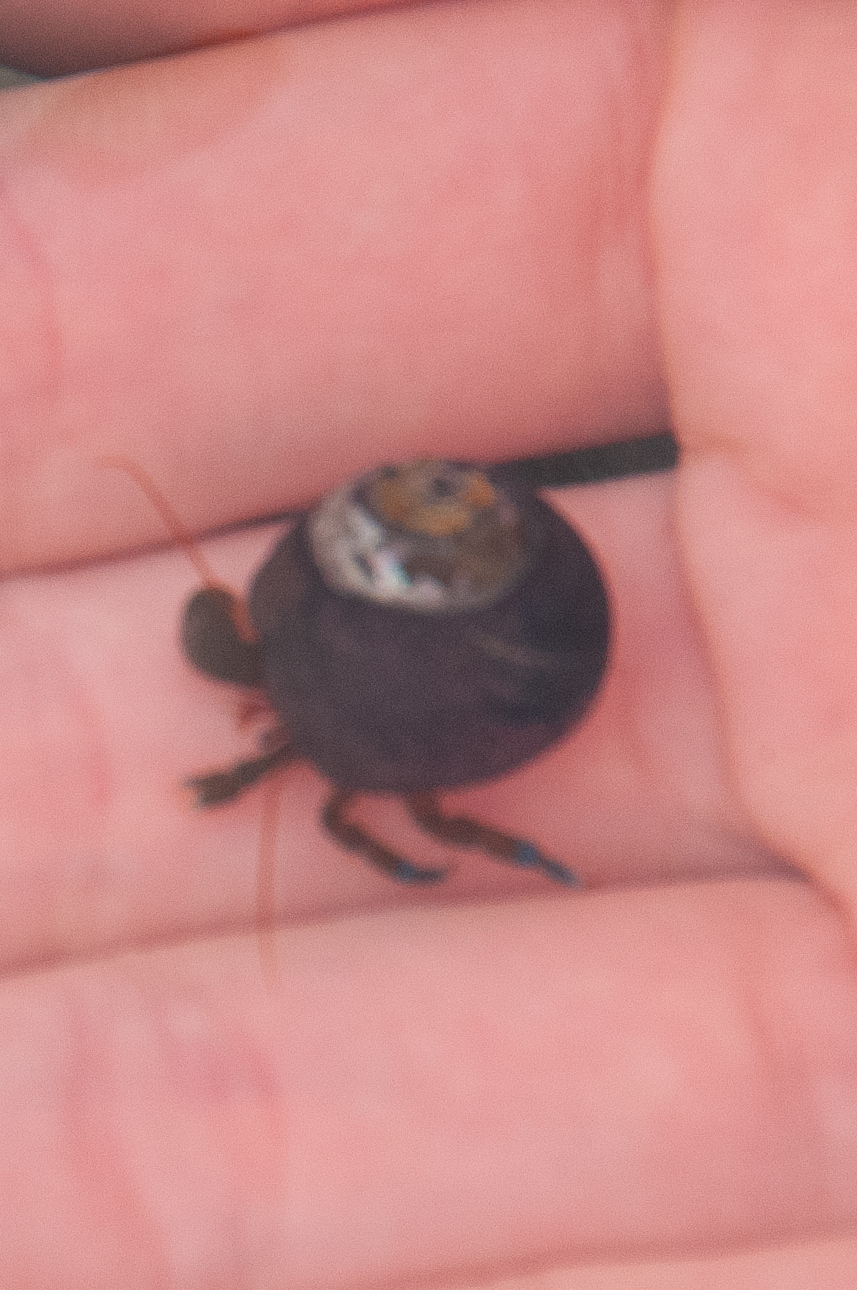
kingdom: Animalia
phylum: Mollusca
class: Gastropoda
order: Trochida
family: Tegulidae
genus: Tegula
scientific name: Tegula funebralis
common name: Black tegula
